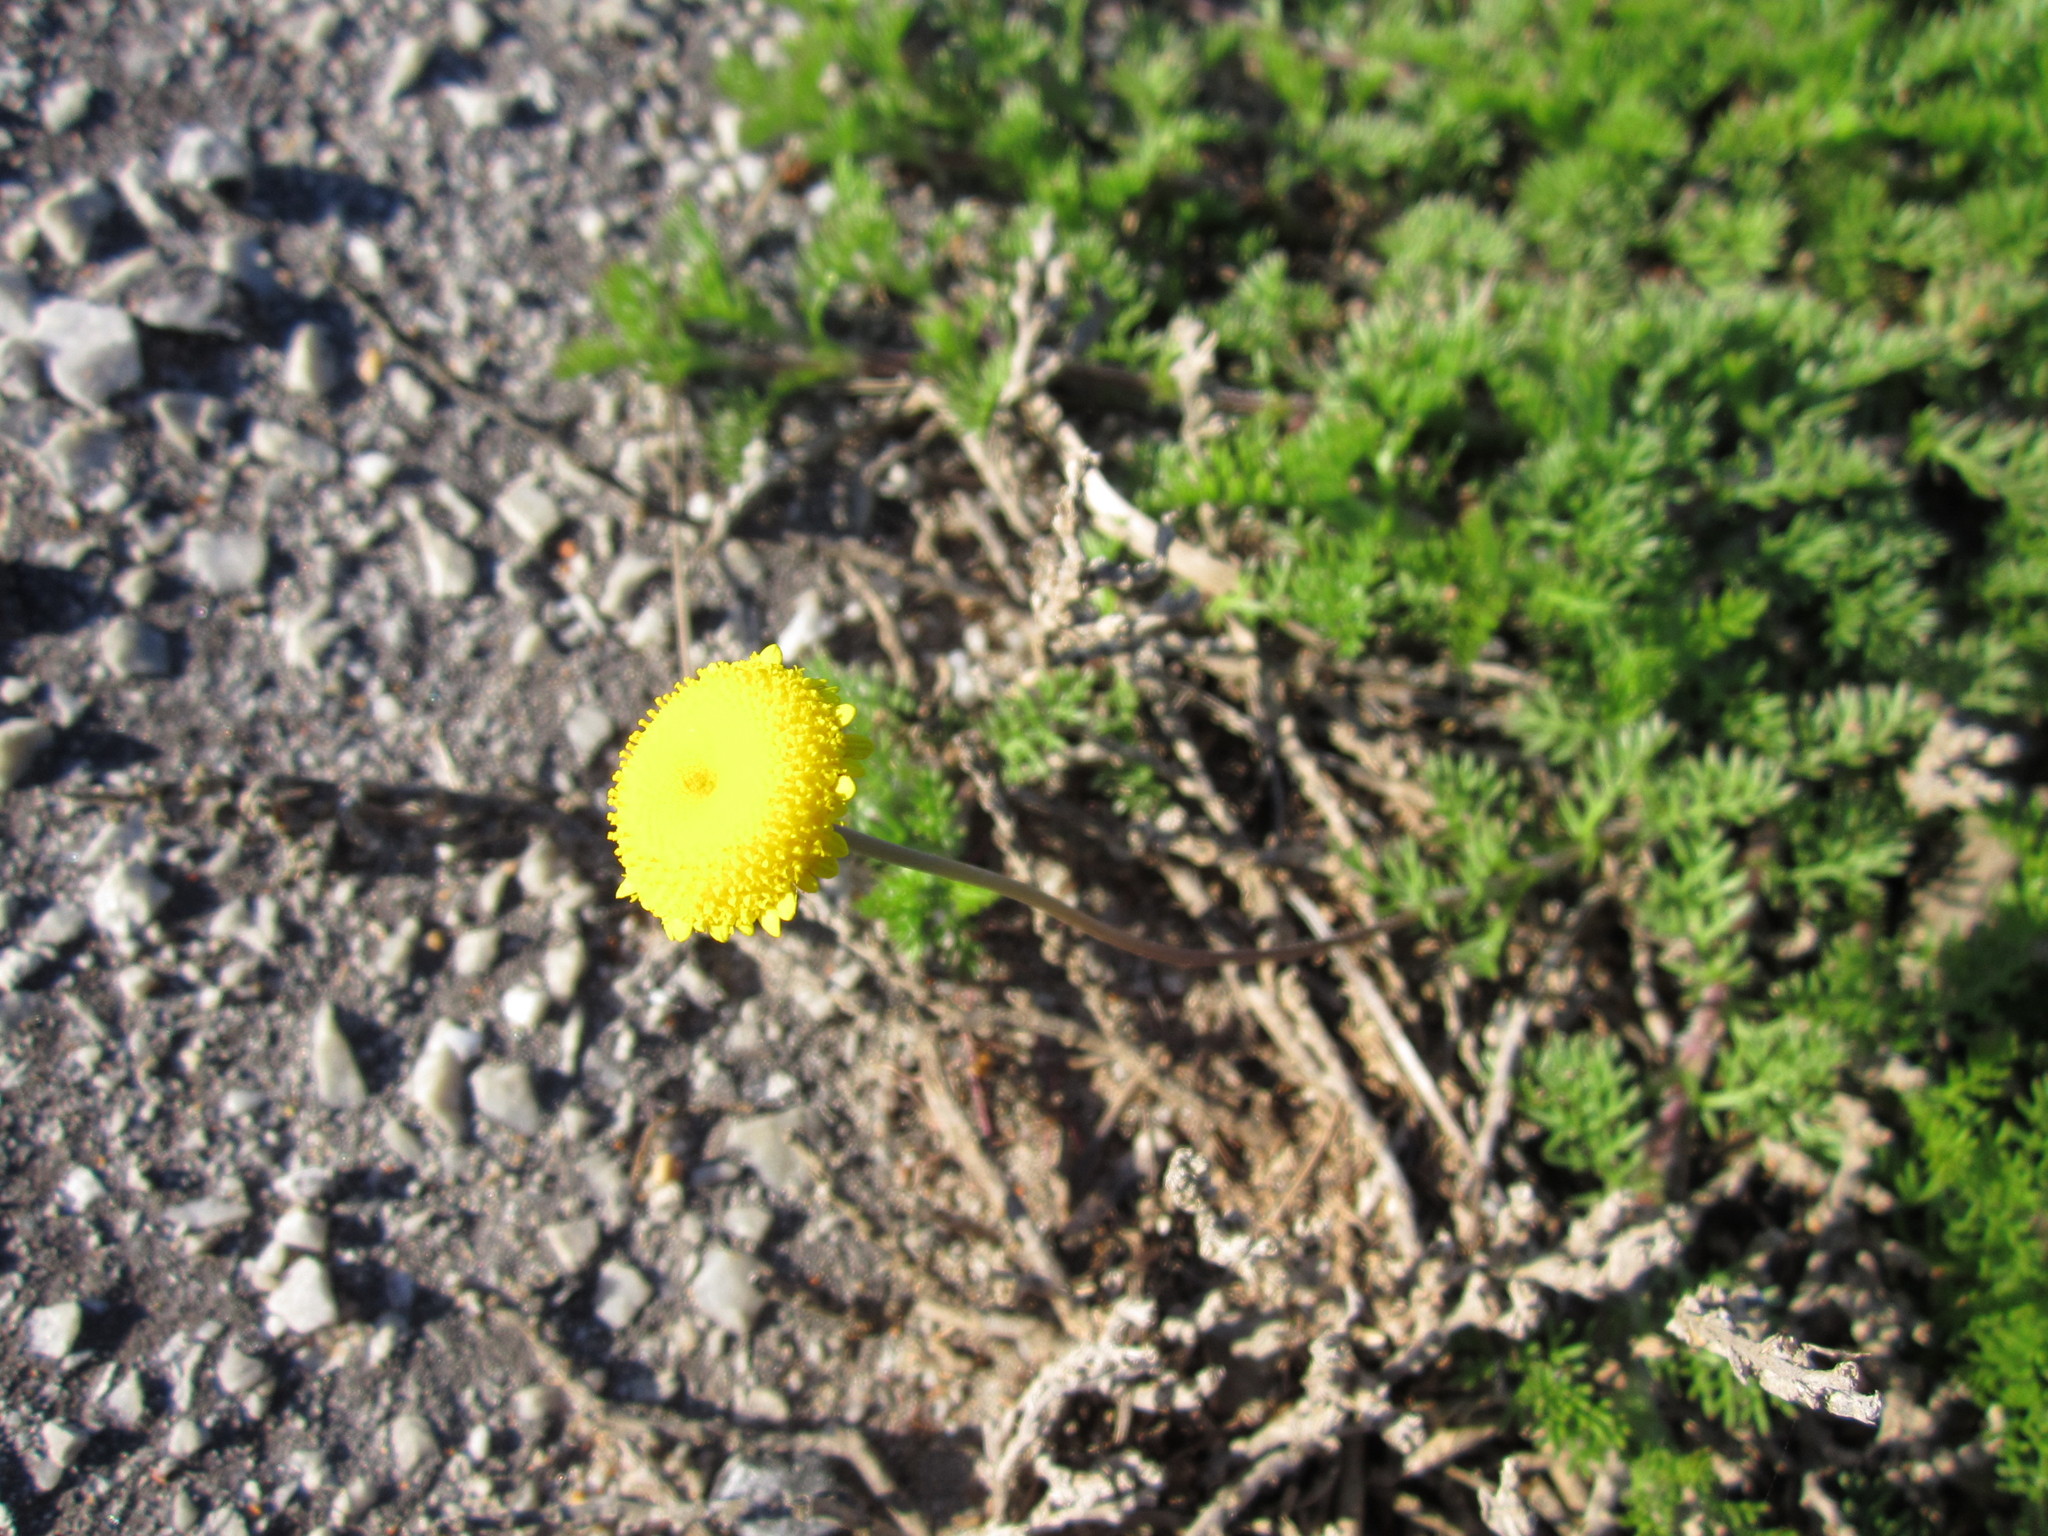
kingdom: Plantae
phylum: Tracheophyta
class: Magnoliopsida
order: Asterales
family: Asteraceae
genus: Cotula
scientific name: Cotula discolor
